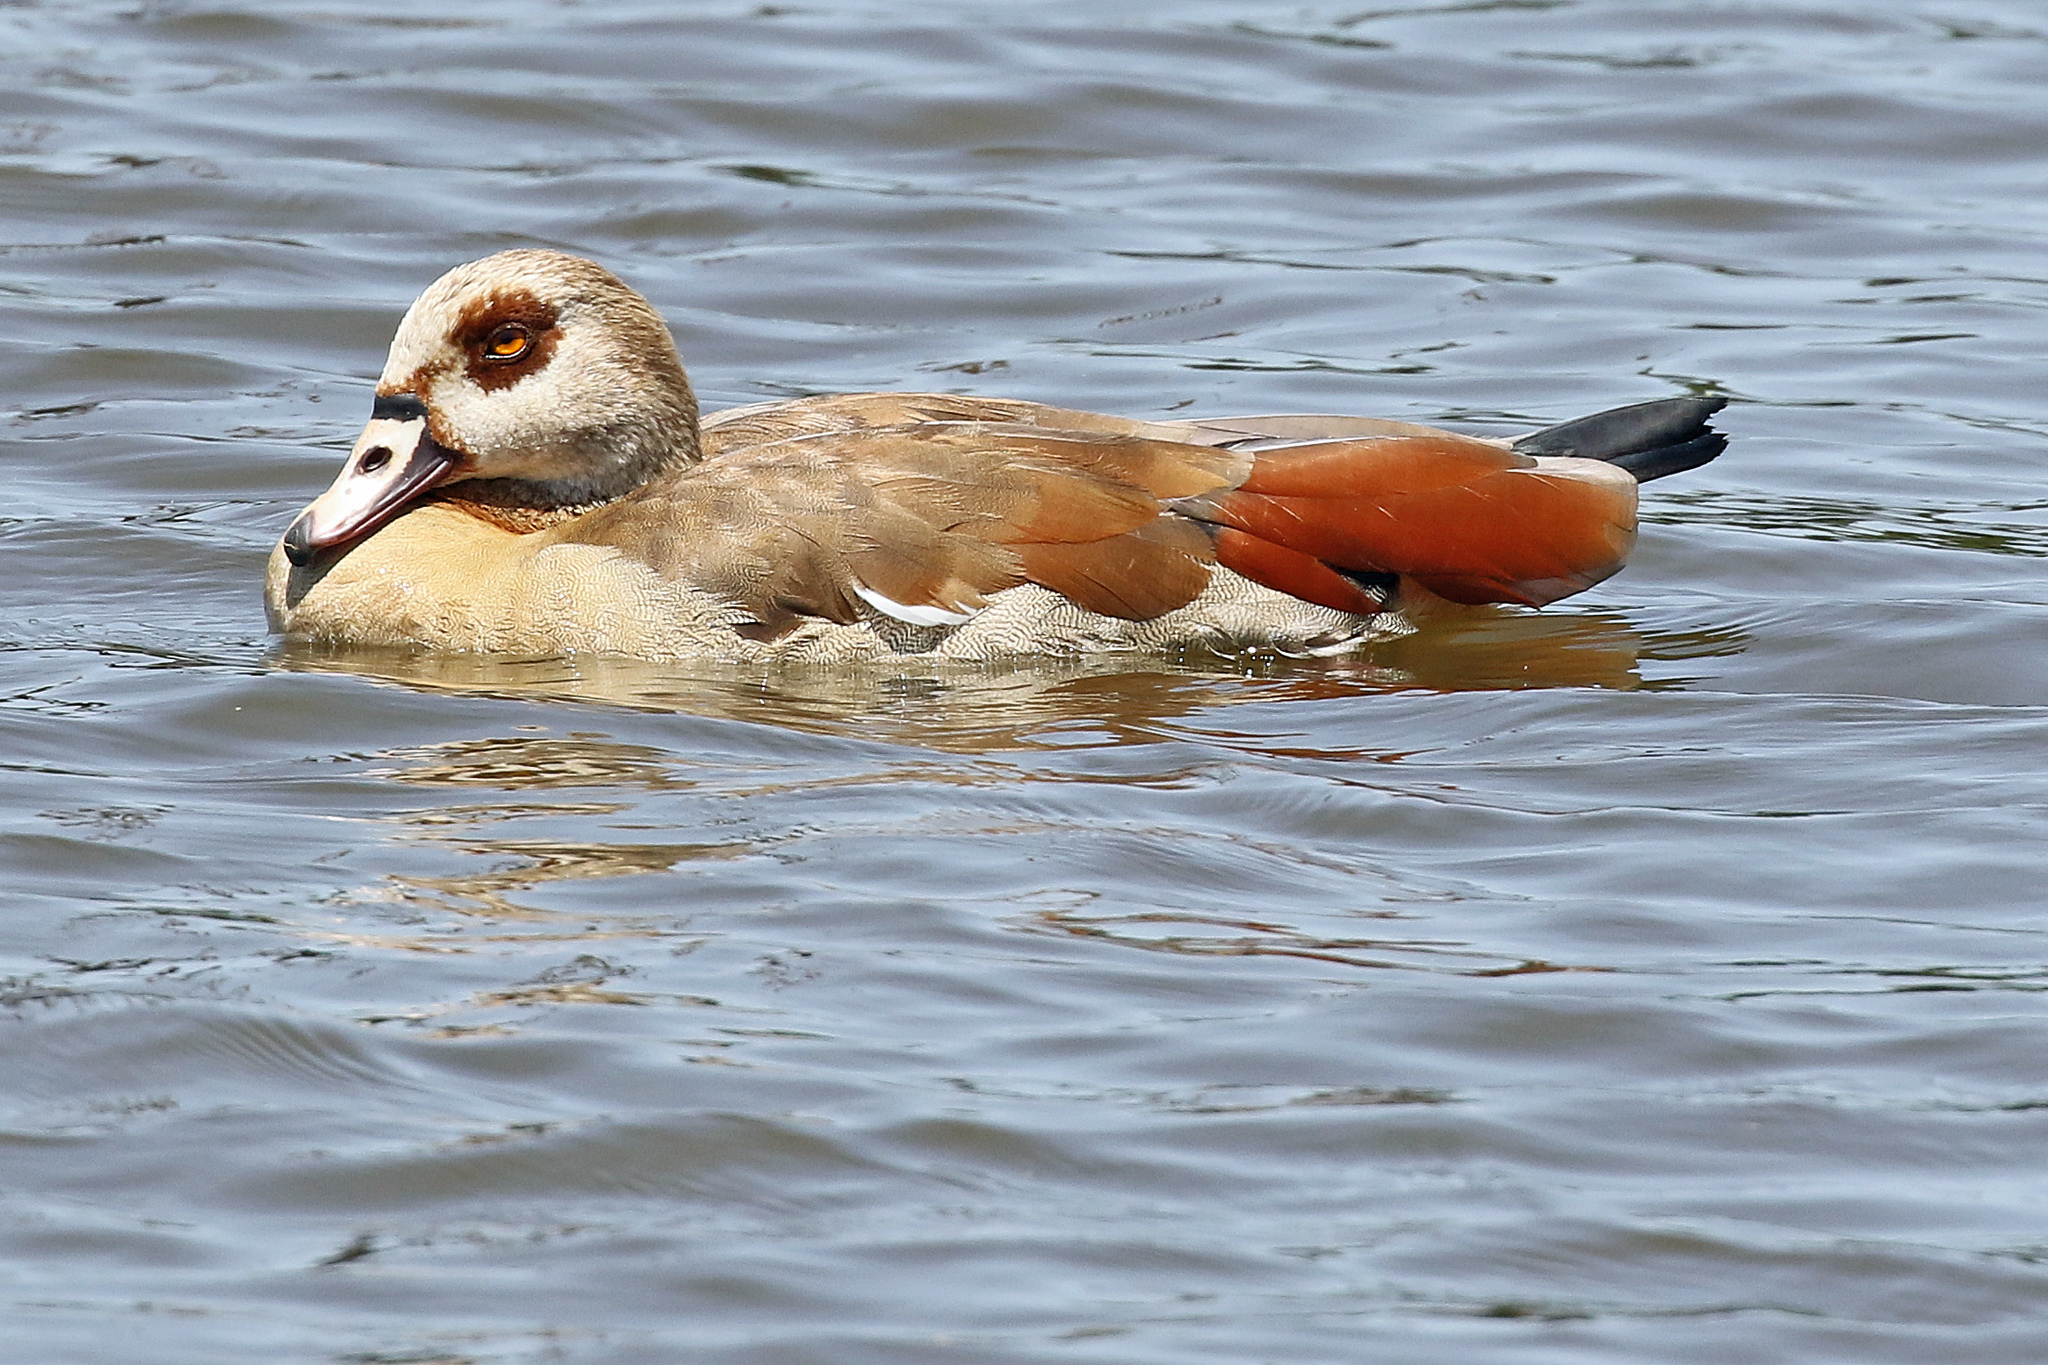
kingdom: Animalia
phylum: Chordata
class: Aves
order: Anseriformes
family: Anatidae
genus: Alopochen
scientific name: Alopochen aegyptiaca
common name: Egyptian goose
